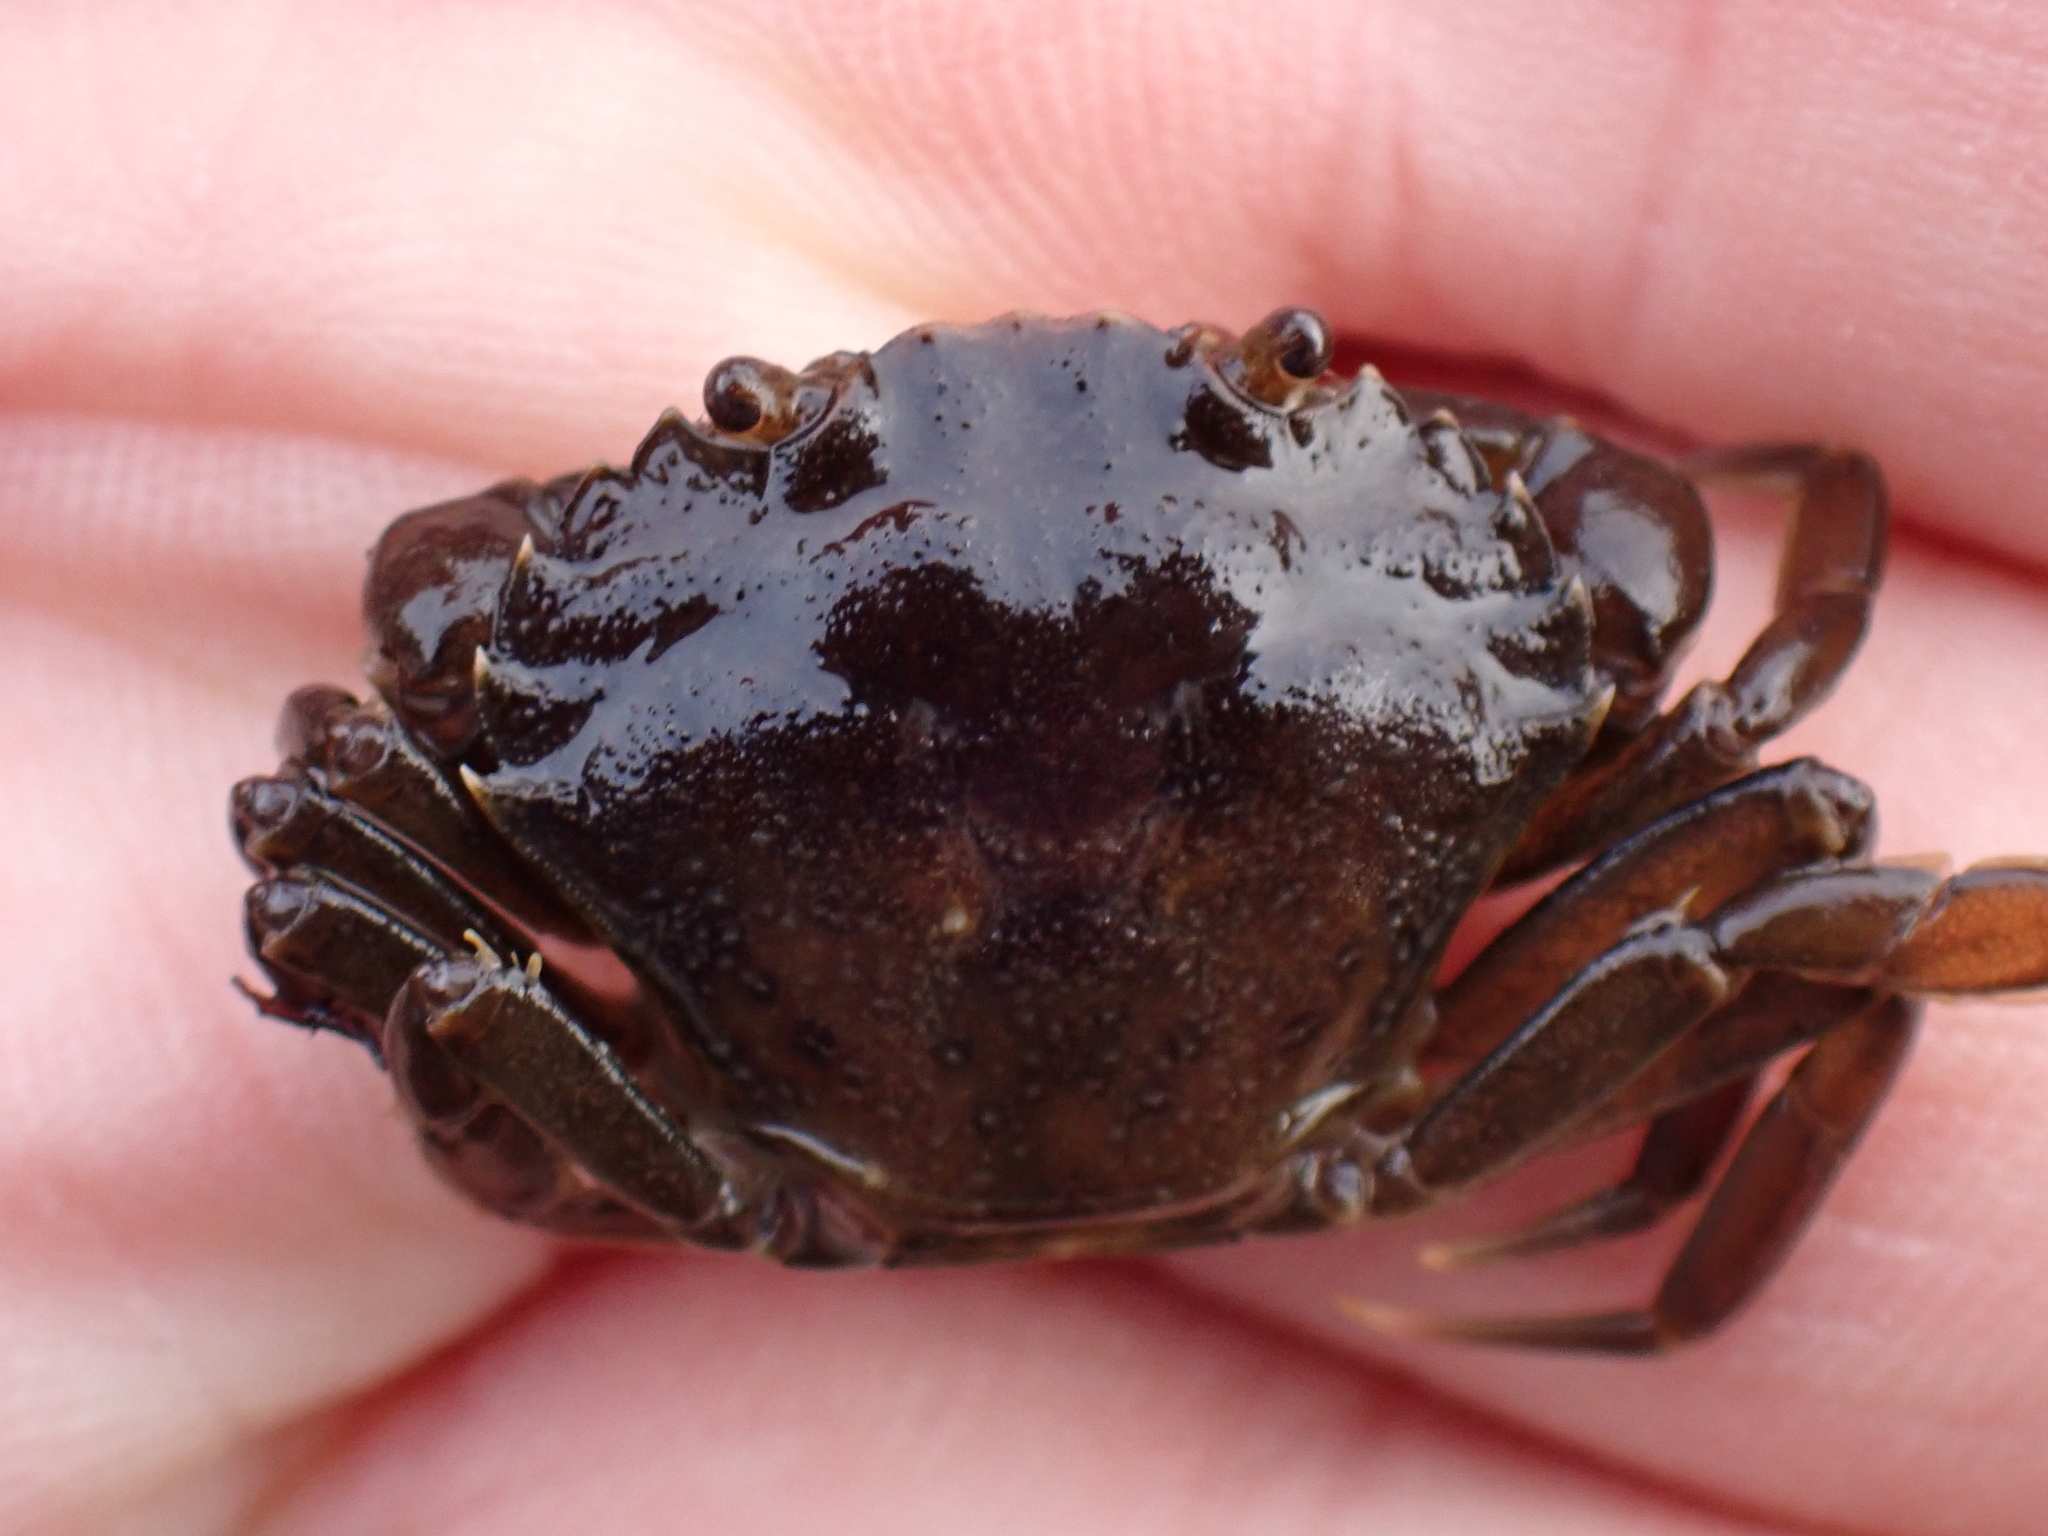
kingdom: Animalia
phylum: Arthropoda
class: Malacostraca
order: Decapoda
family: Carcinidae
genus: Carcinus
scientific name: Carcinus maenas
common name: European green crab
